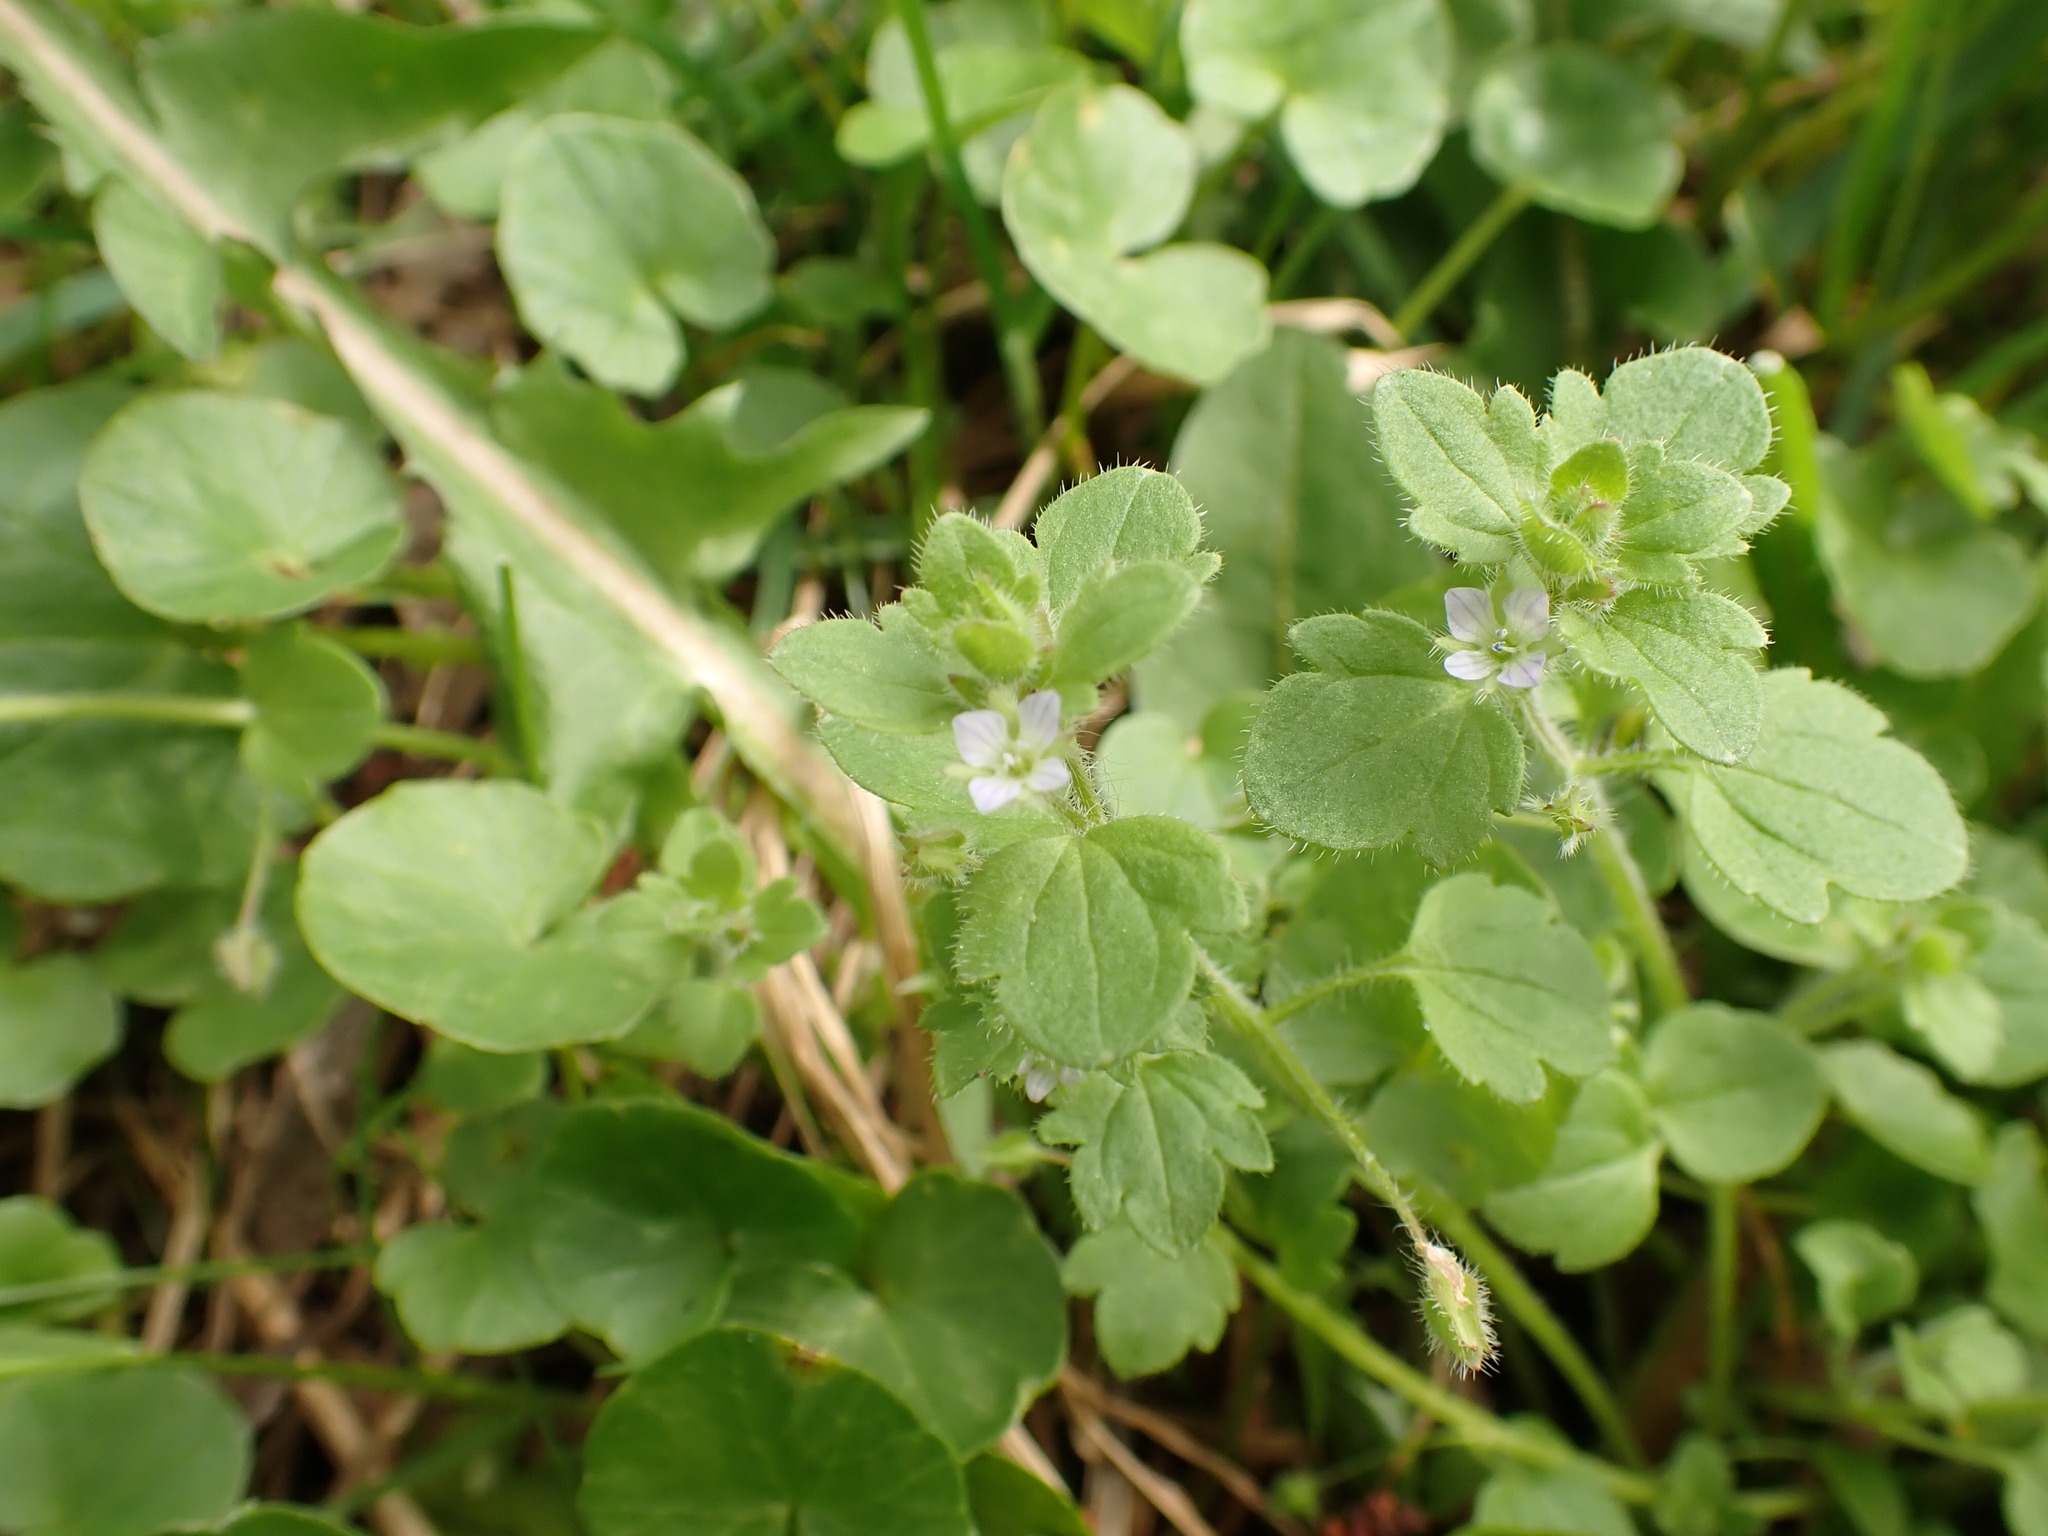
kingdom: Plantae
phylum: Tracheophyta
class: Magnoliopsida
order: Lamiales
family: Plantaginaceae
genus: Veronica
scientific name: Veronica sublobata
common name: False ivy-leaved speedwell
